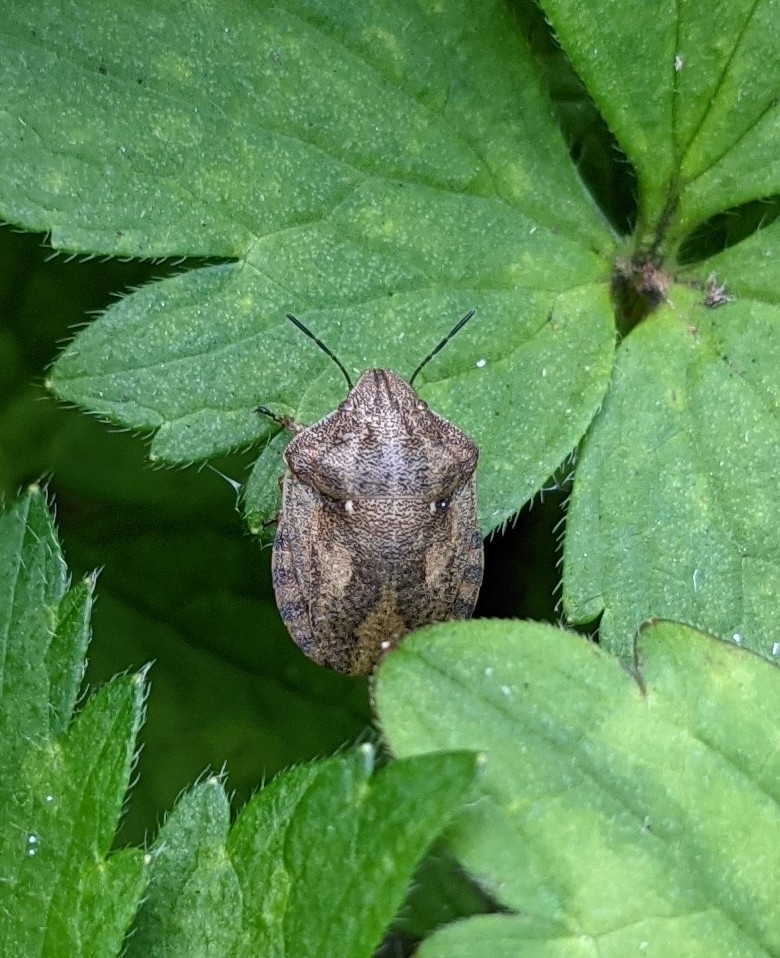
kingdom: Animalia
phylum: Arthropoda
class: Insecta
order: Hemiptera
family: Scutelleridae
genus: Eurygaster
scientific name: Eurygaster testudinaria
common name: Tortoise bug
